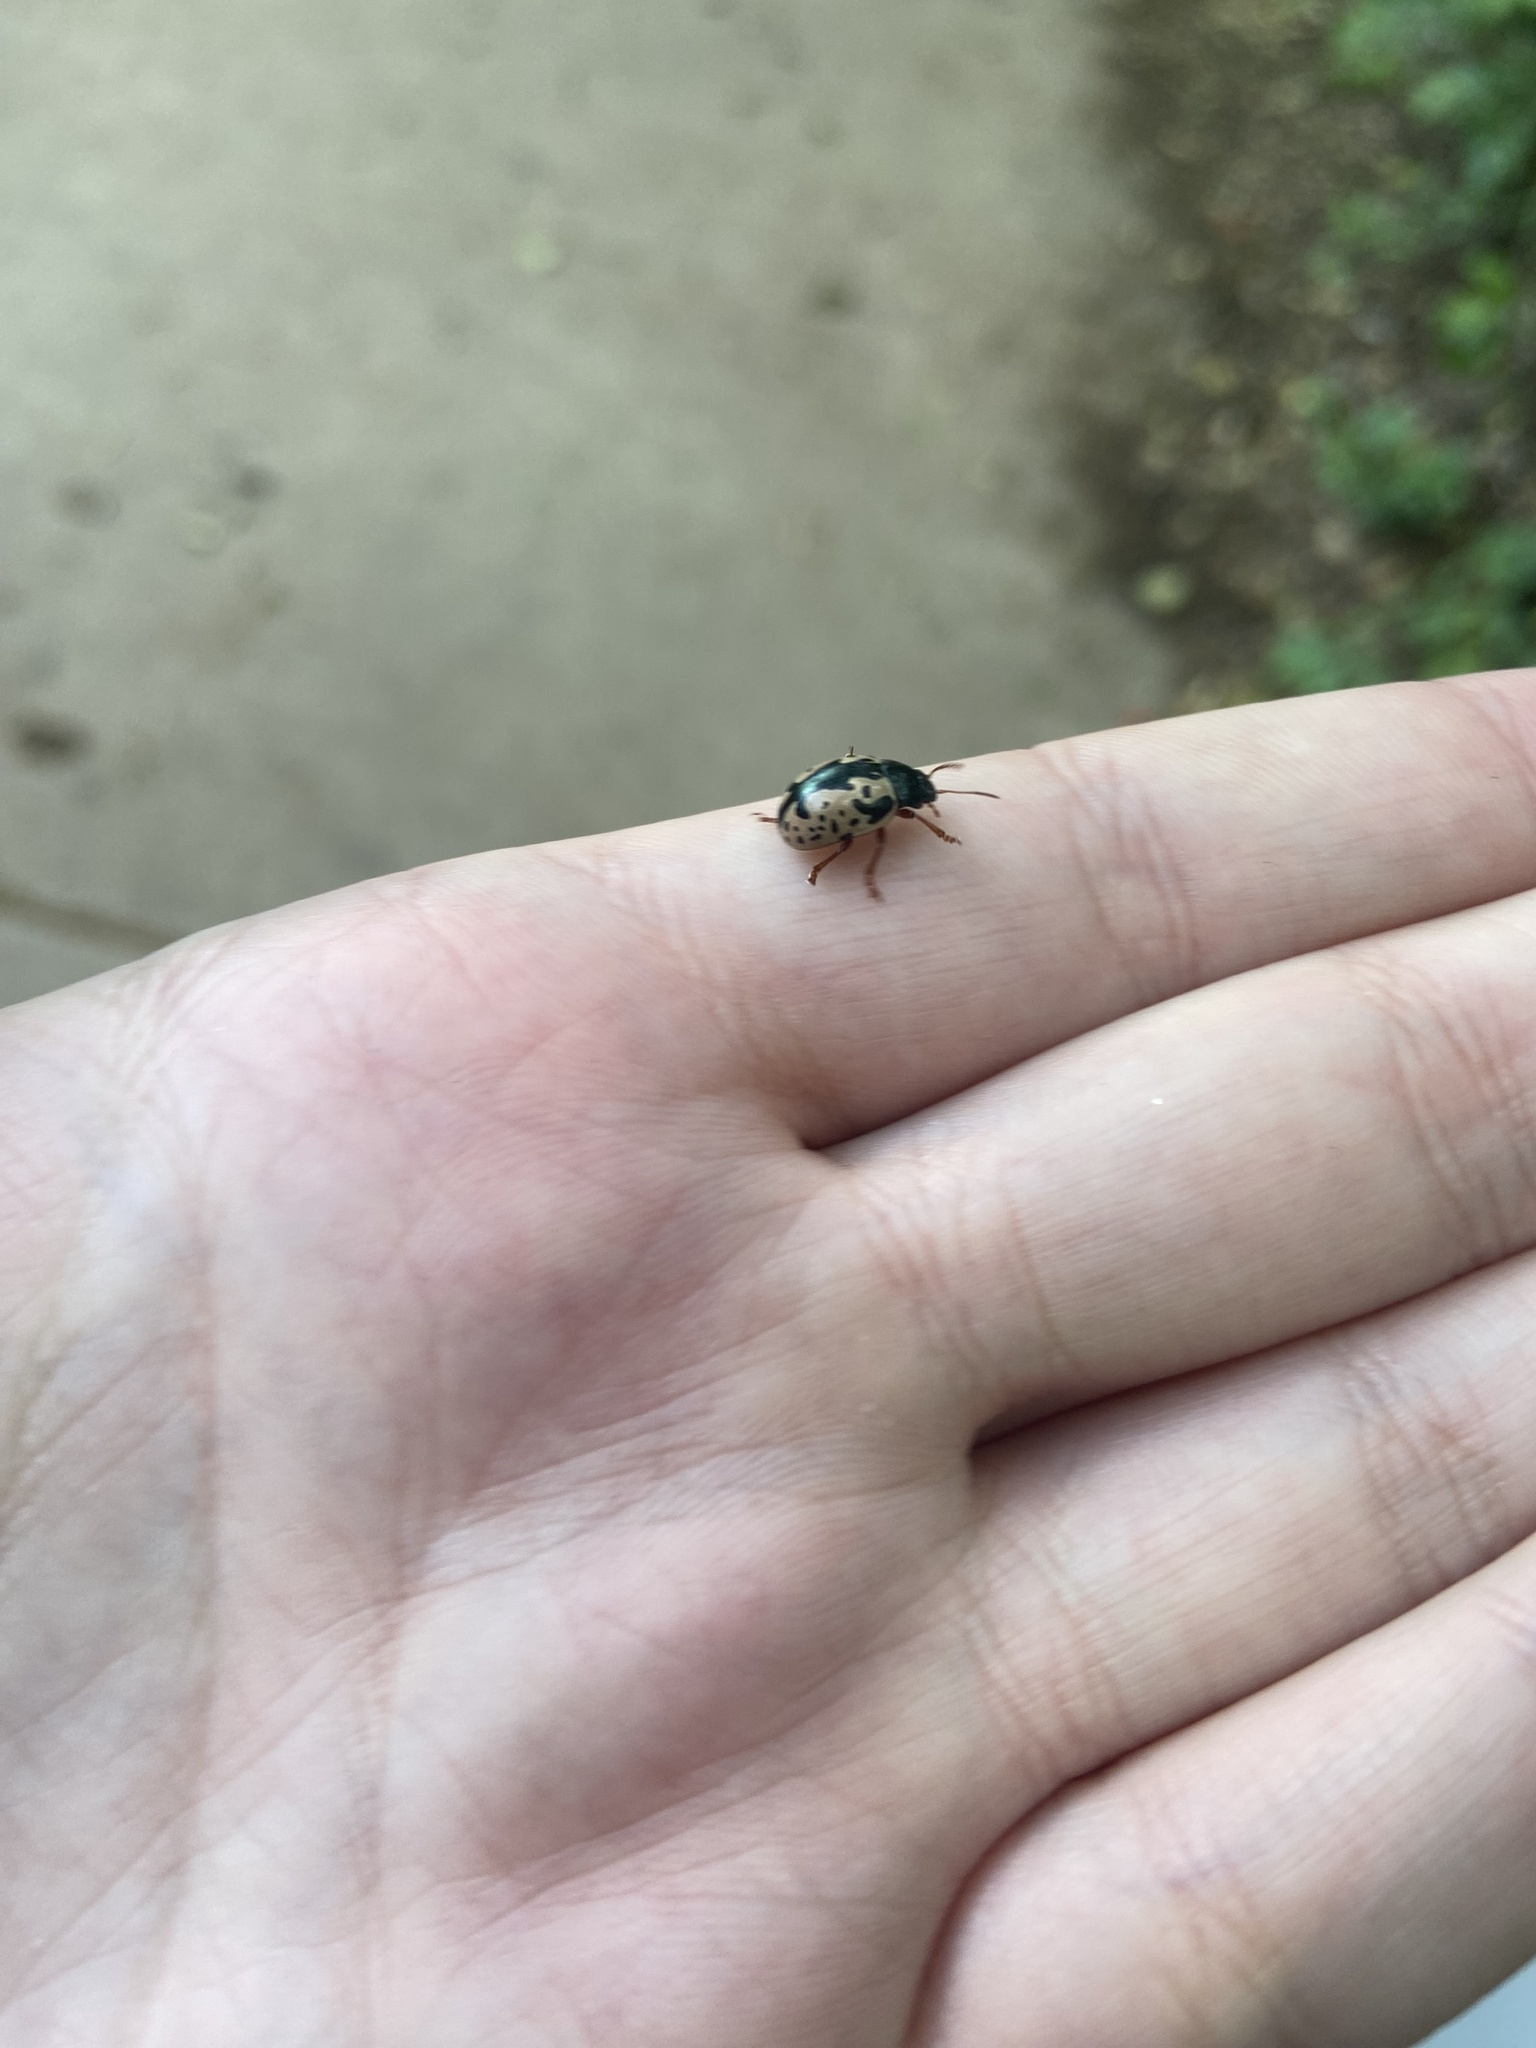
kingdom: Animalia
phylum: Arthropoda
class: Insecta
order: Coleoptera
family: Chrysomelidae
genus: Calligrapha
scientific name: Calligrapha scalaris
